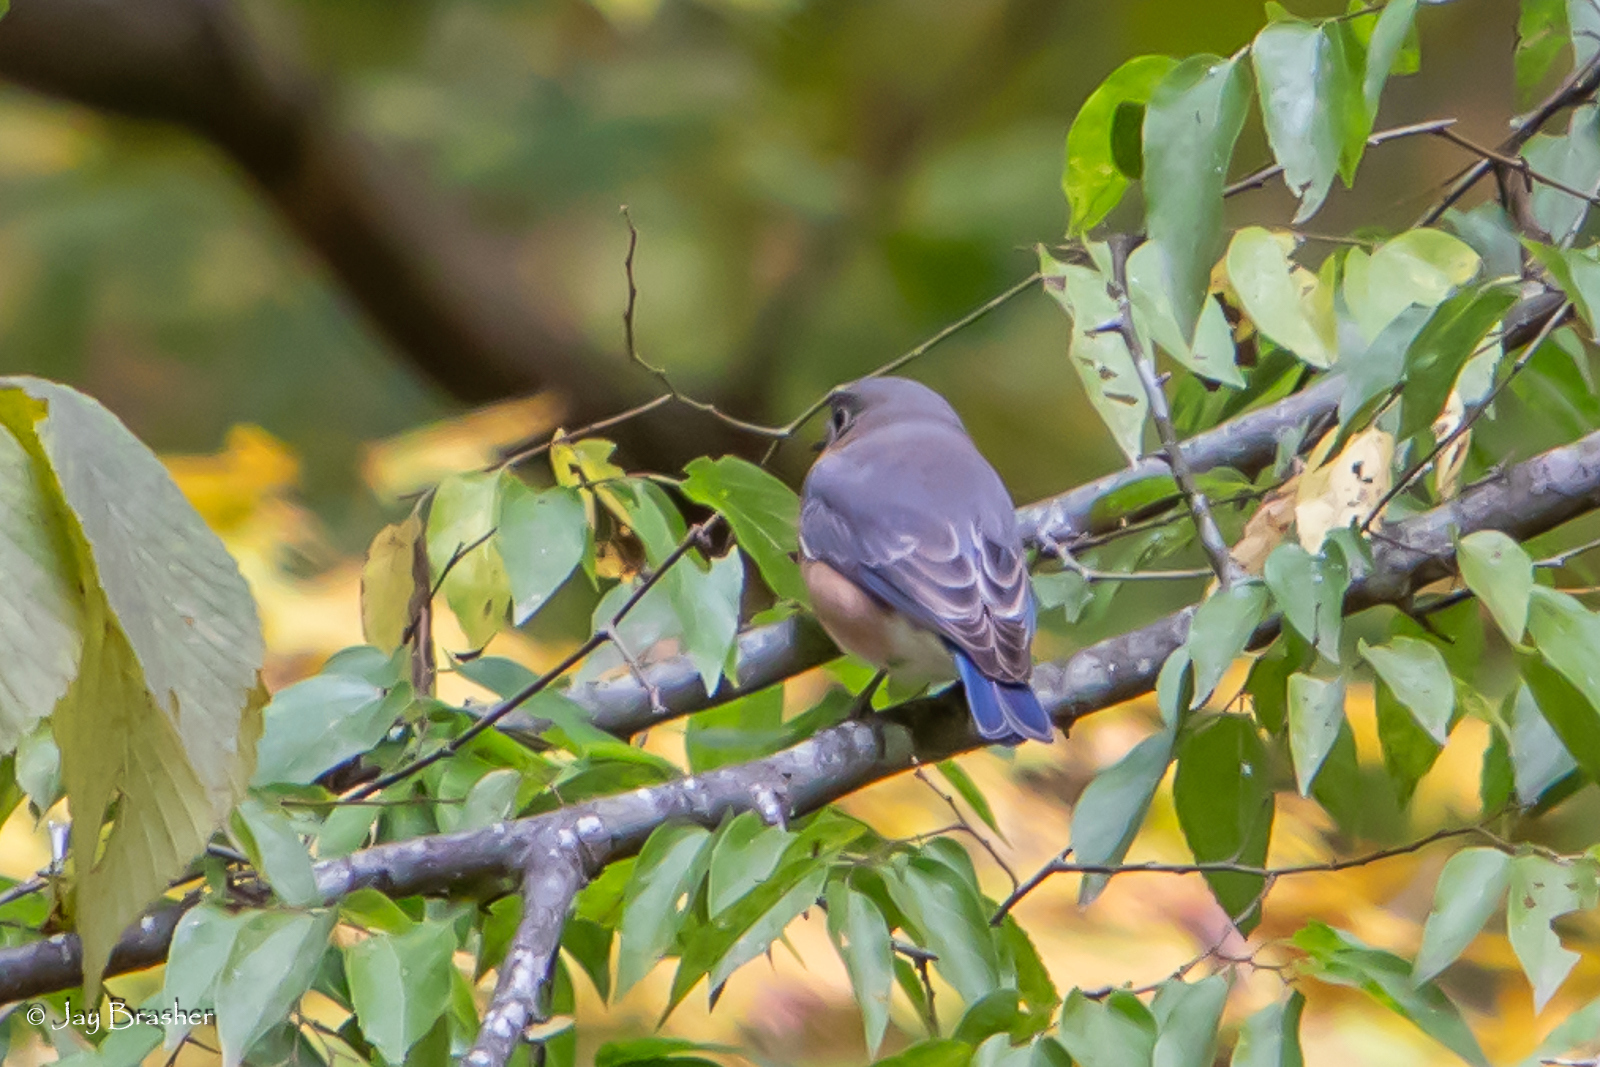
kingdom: Animalia
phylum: Chordata
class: Aves
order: Passeriformes
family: Turdidae
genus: Sialia
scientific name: Sialia sialis
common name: Eastern bluebird
